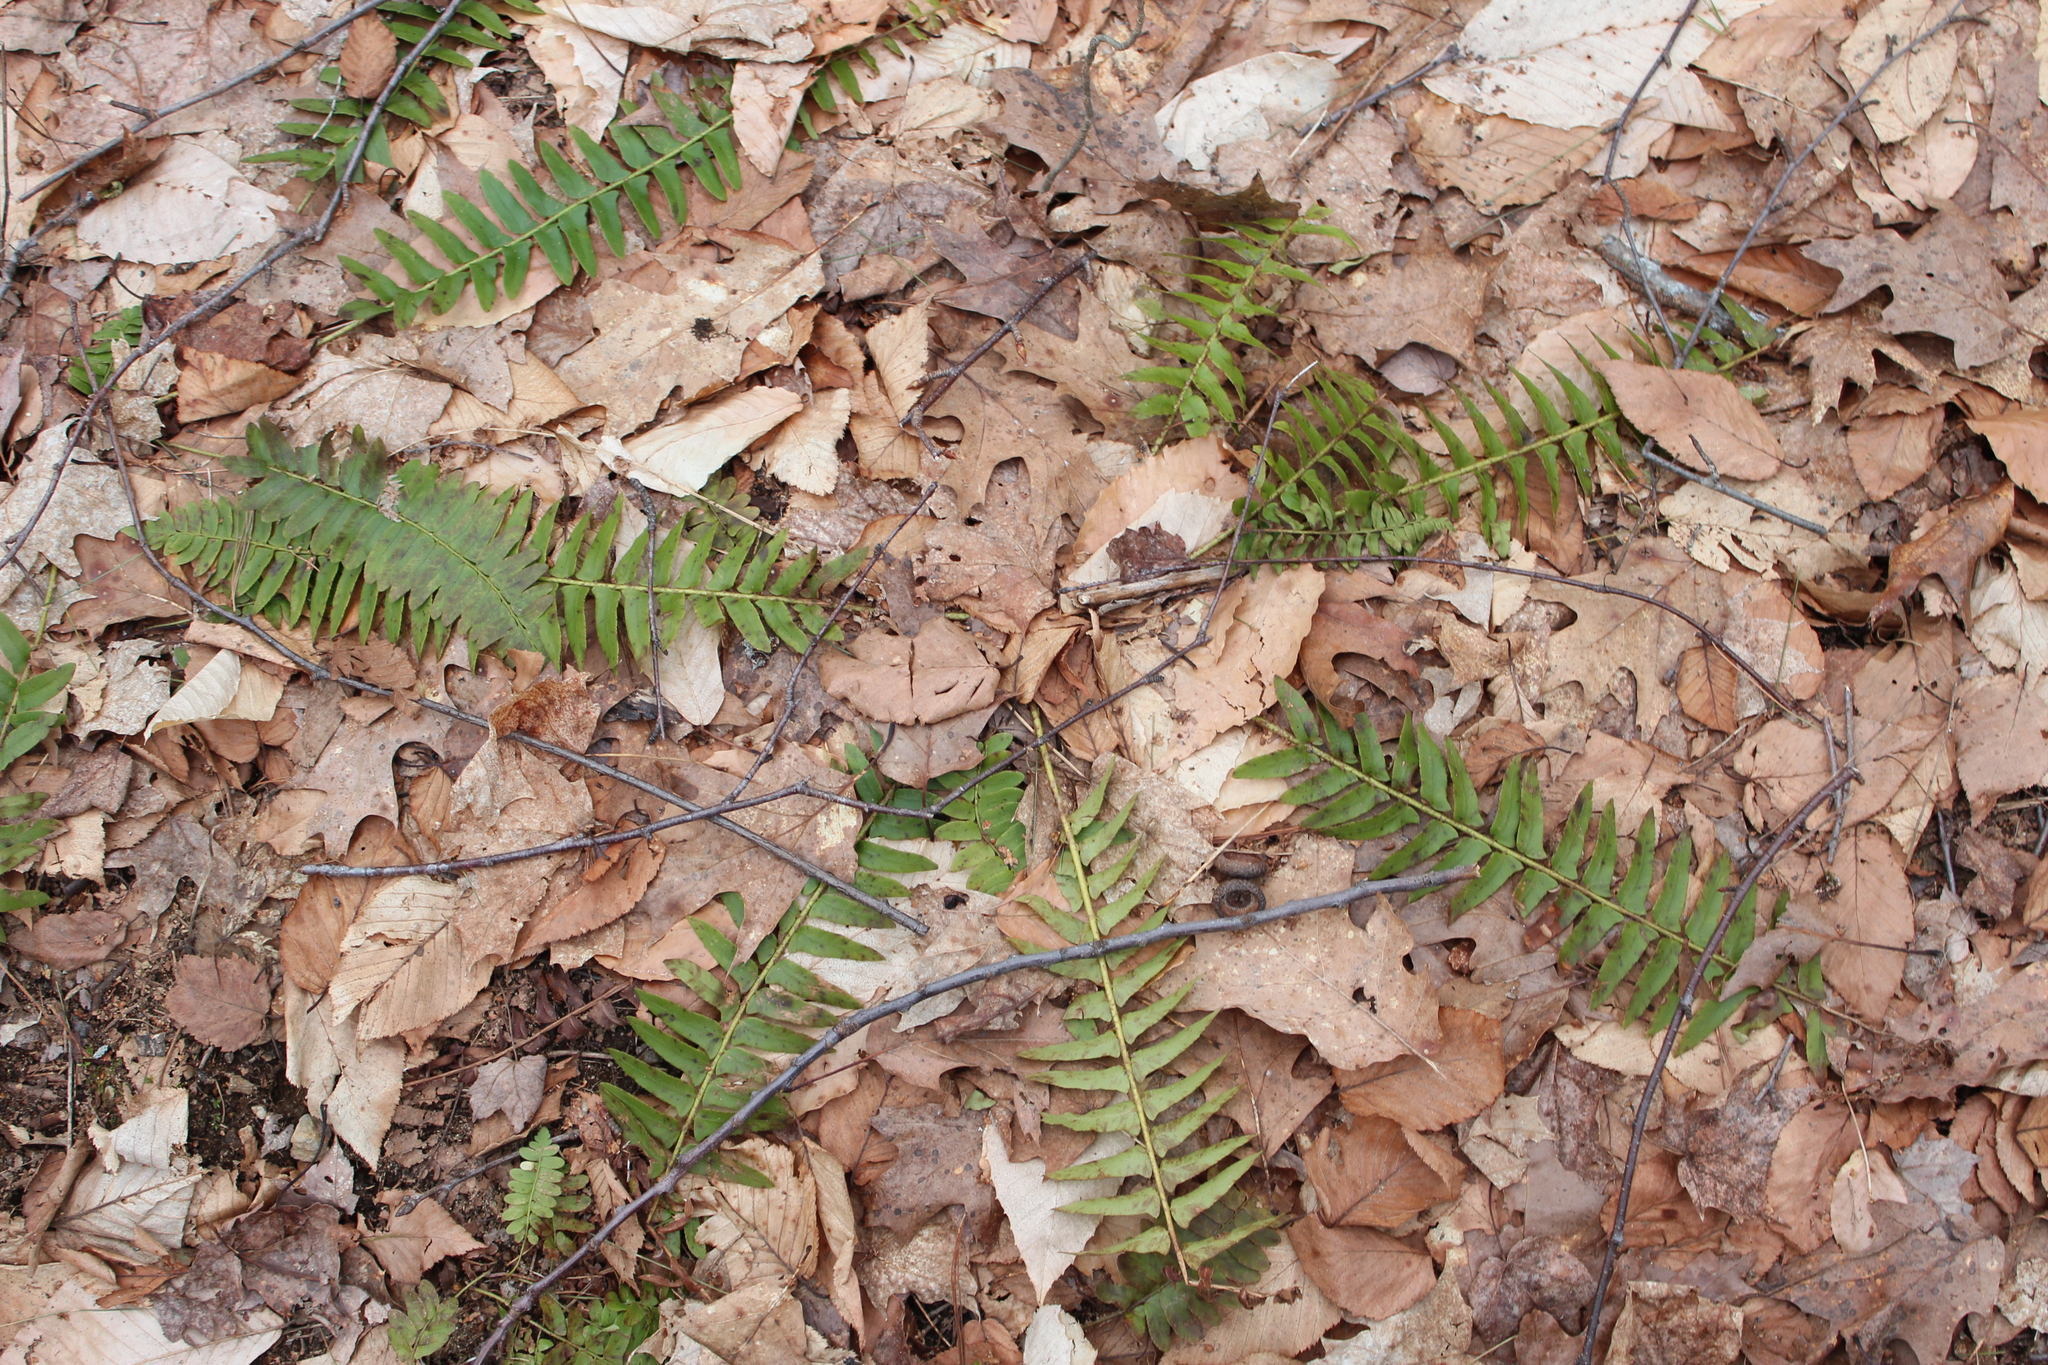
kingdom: Plantae
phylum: Tracheophyta
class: Polypodiopsida
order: Polypodiales
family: Dryopteridaceae
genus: Polystichum
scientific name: Polystichum acrostichoides
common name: Christmas fern
